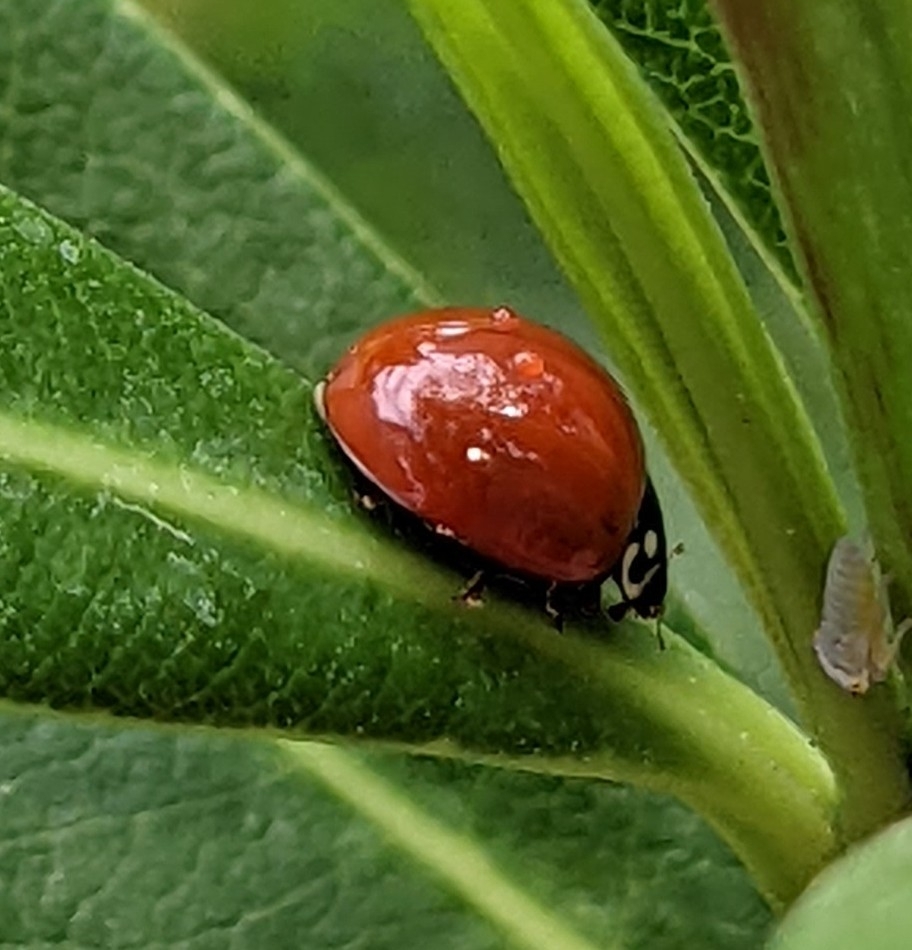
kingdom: Animalia
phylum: Arthropoda
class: Insecta
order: Coleoptera
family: Coccinellidae
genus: Cycloneda
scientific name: Cycloneda sanguinea
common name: Ladybird beetle
